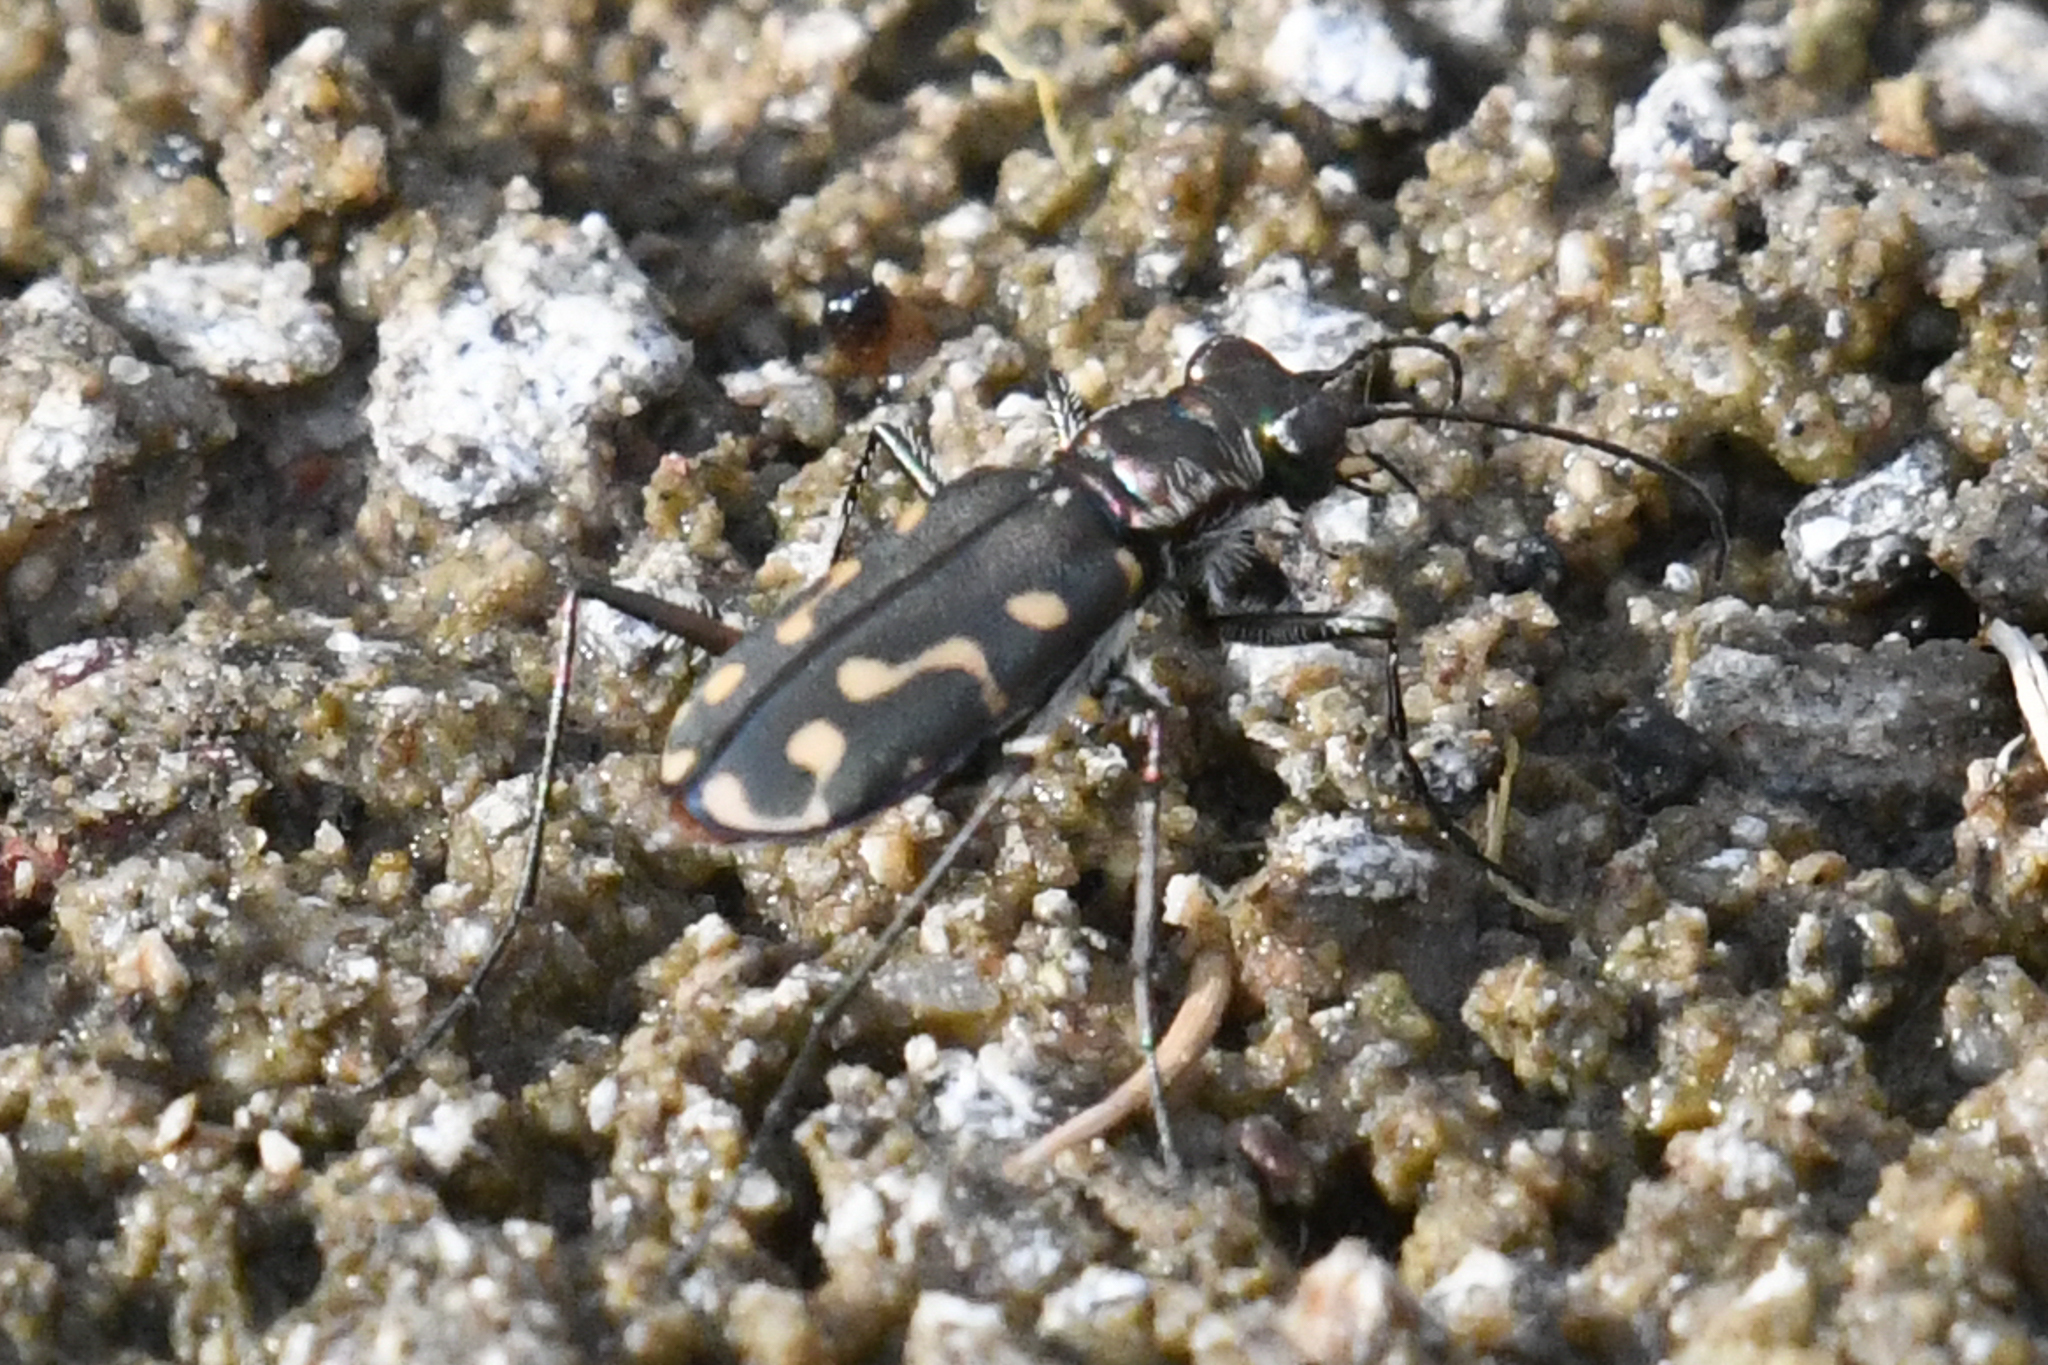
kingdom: Animalia
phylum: Arthropoda
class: Insecta
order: Coleoptera
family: Carabidae
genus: Cicindela
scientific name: Cicindela hemorrhagica
